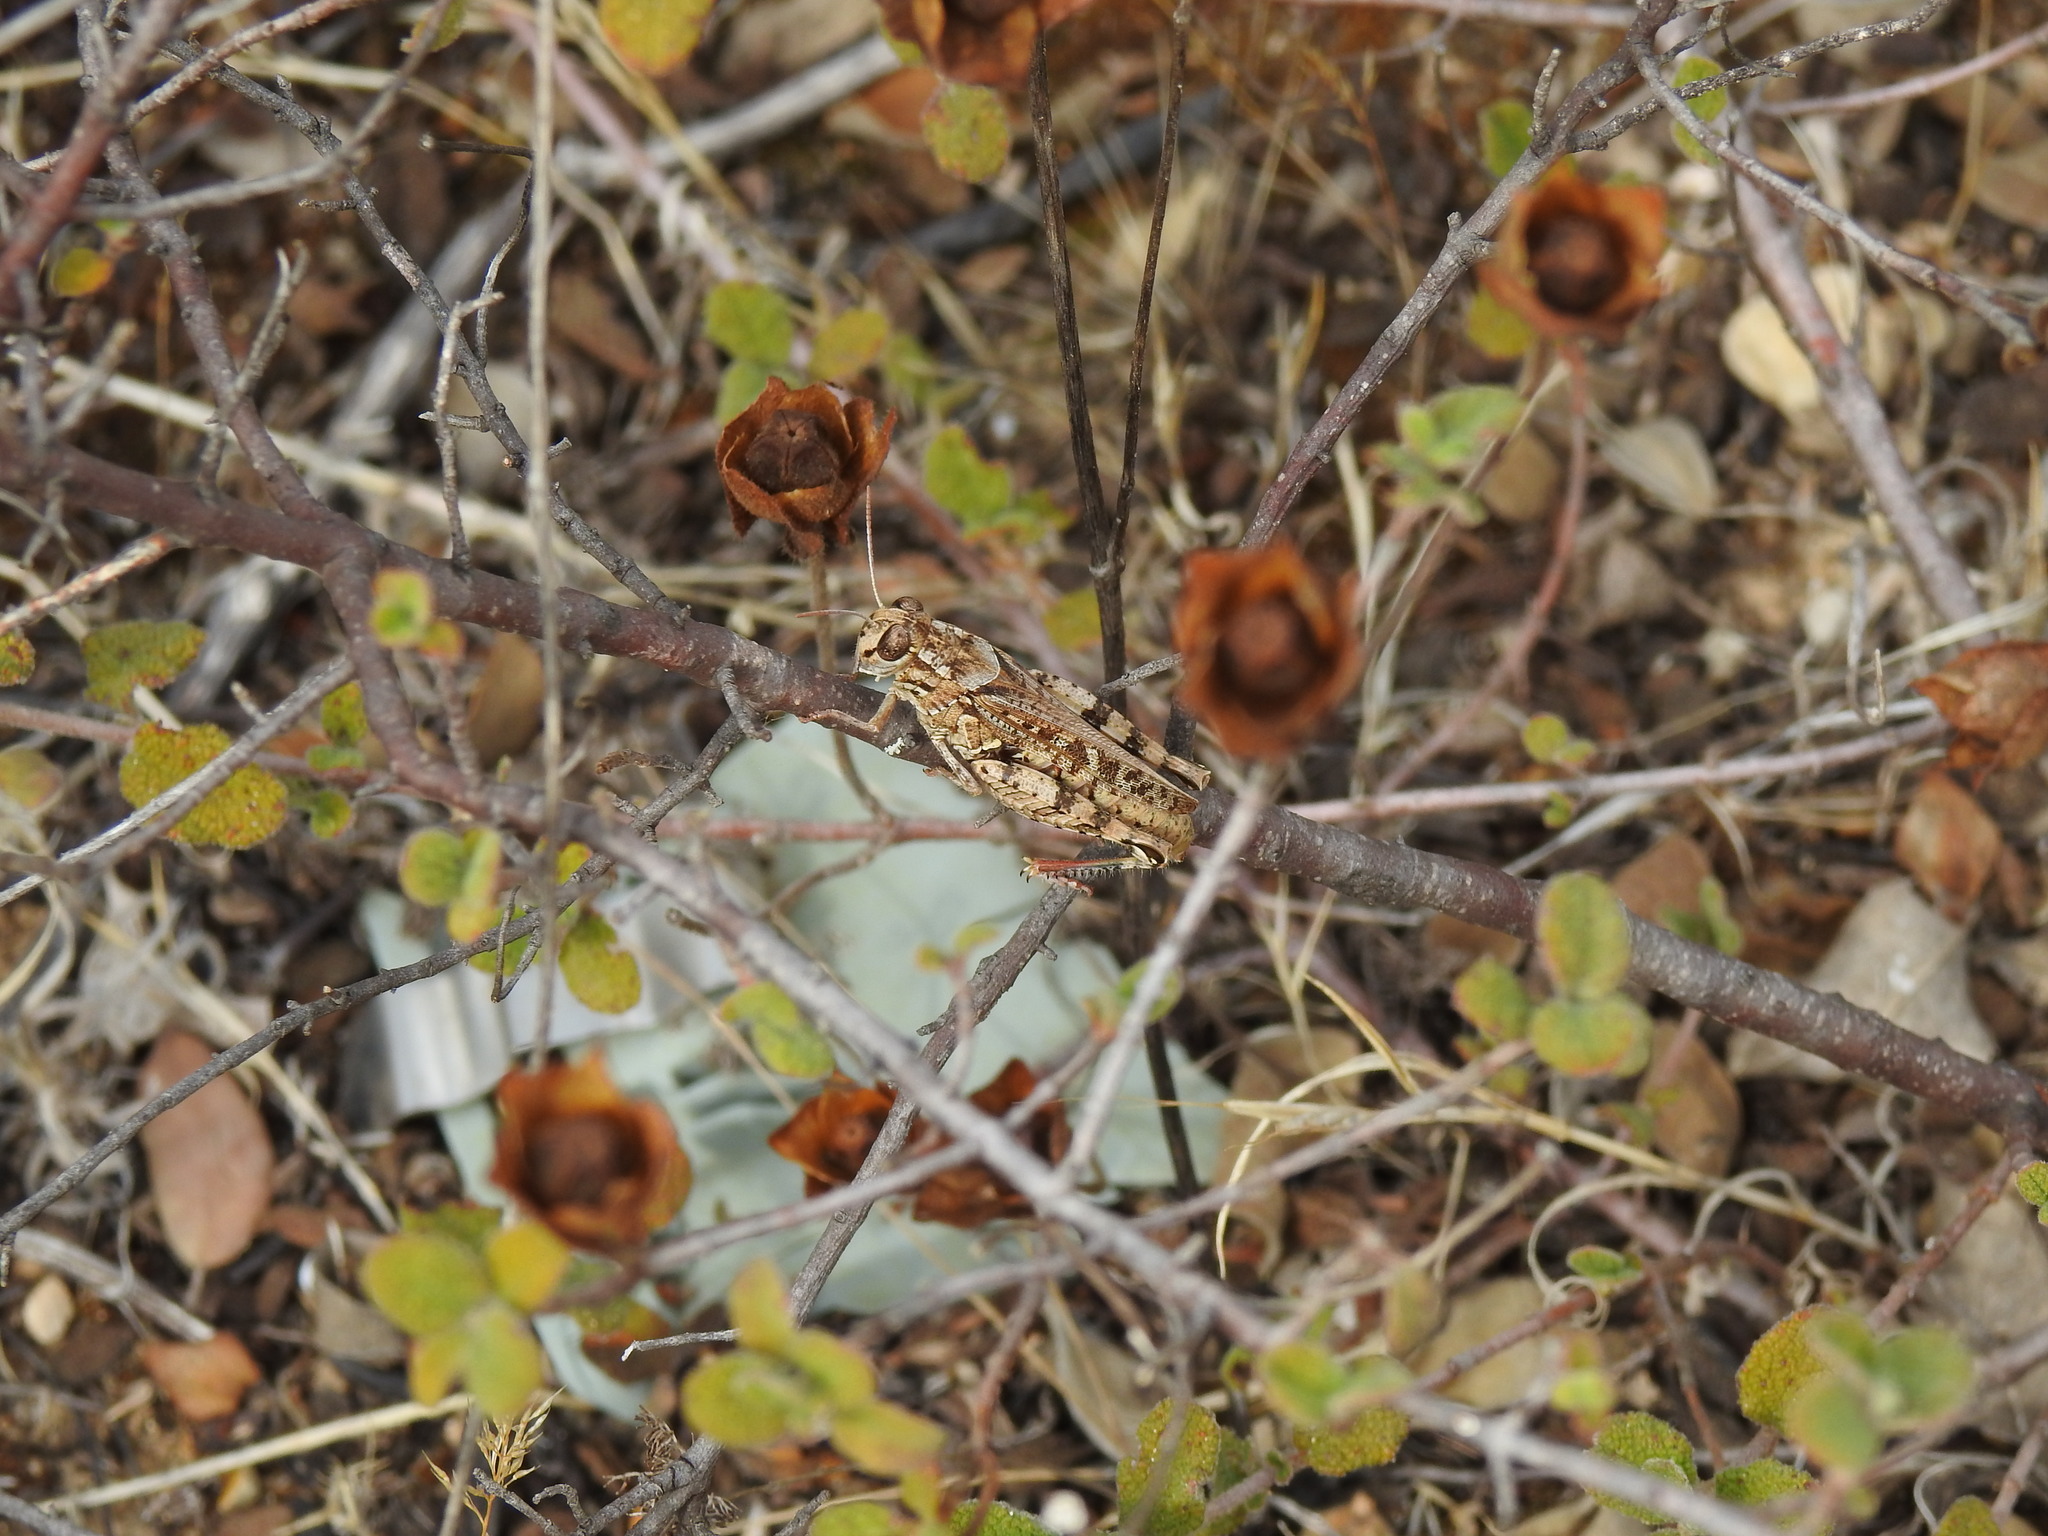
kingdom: Animalia
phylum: Arthropoda
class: Insecta
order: Orthoptera
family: Acrididae
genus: Calliptamus
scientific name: Calliptamus barbarus
